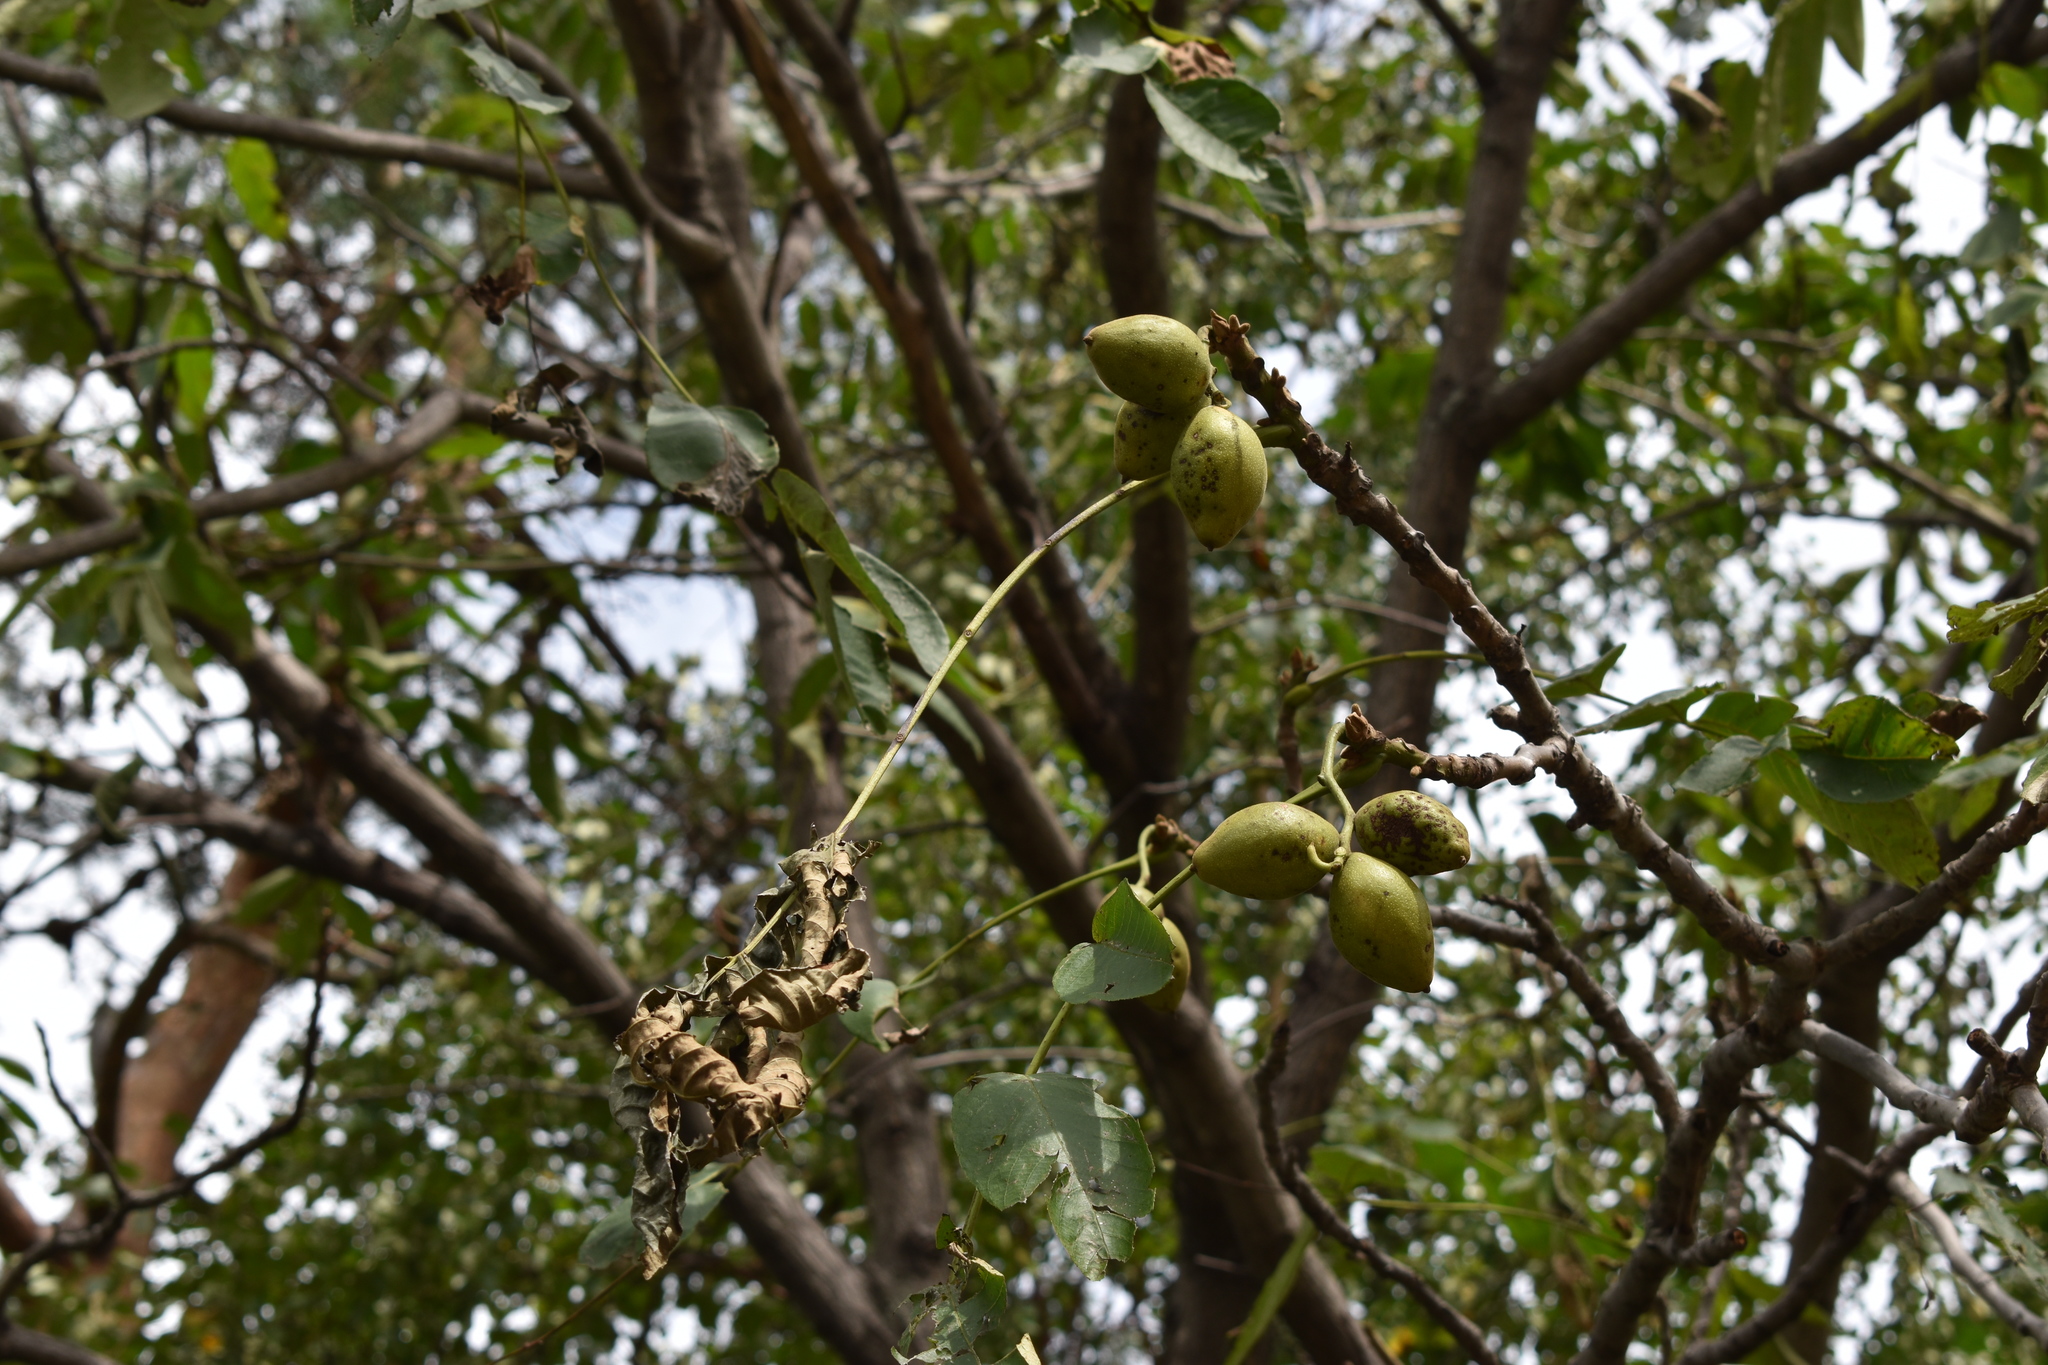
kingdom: Plantae
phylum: Tracheophyta
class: Magnoliopsida
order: Fagales
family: Juglandaceae
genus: Juglans
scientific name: Juglans mandshurica
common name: Manchurian walnut
